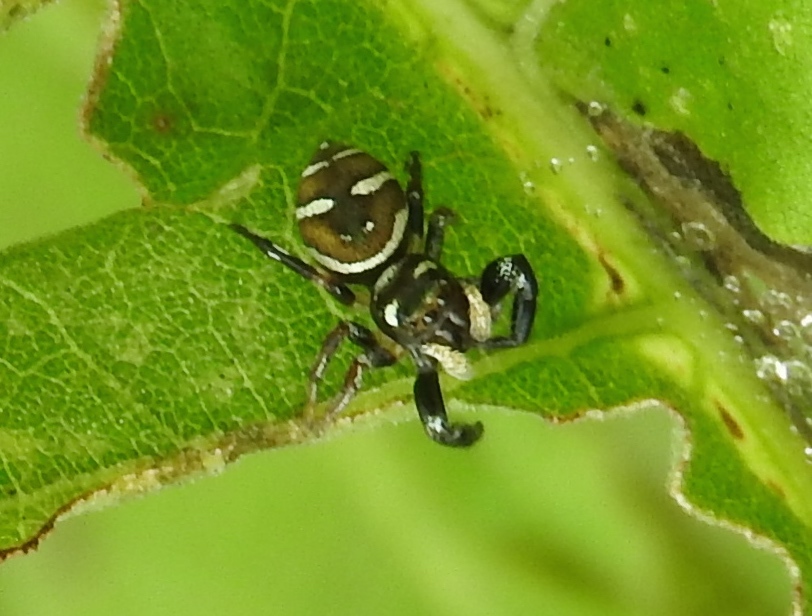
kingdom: Animalia
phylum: Arthropoda
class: Arachnida
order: Araneae
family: Salticidae
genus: Sassacus
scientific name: Sassacus
